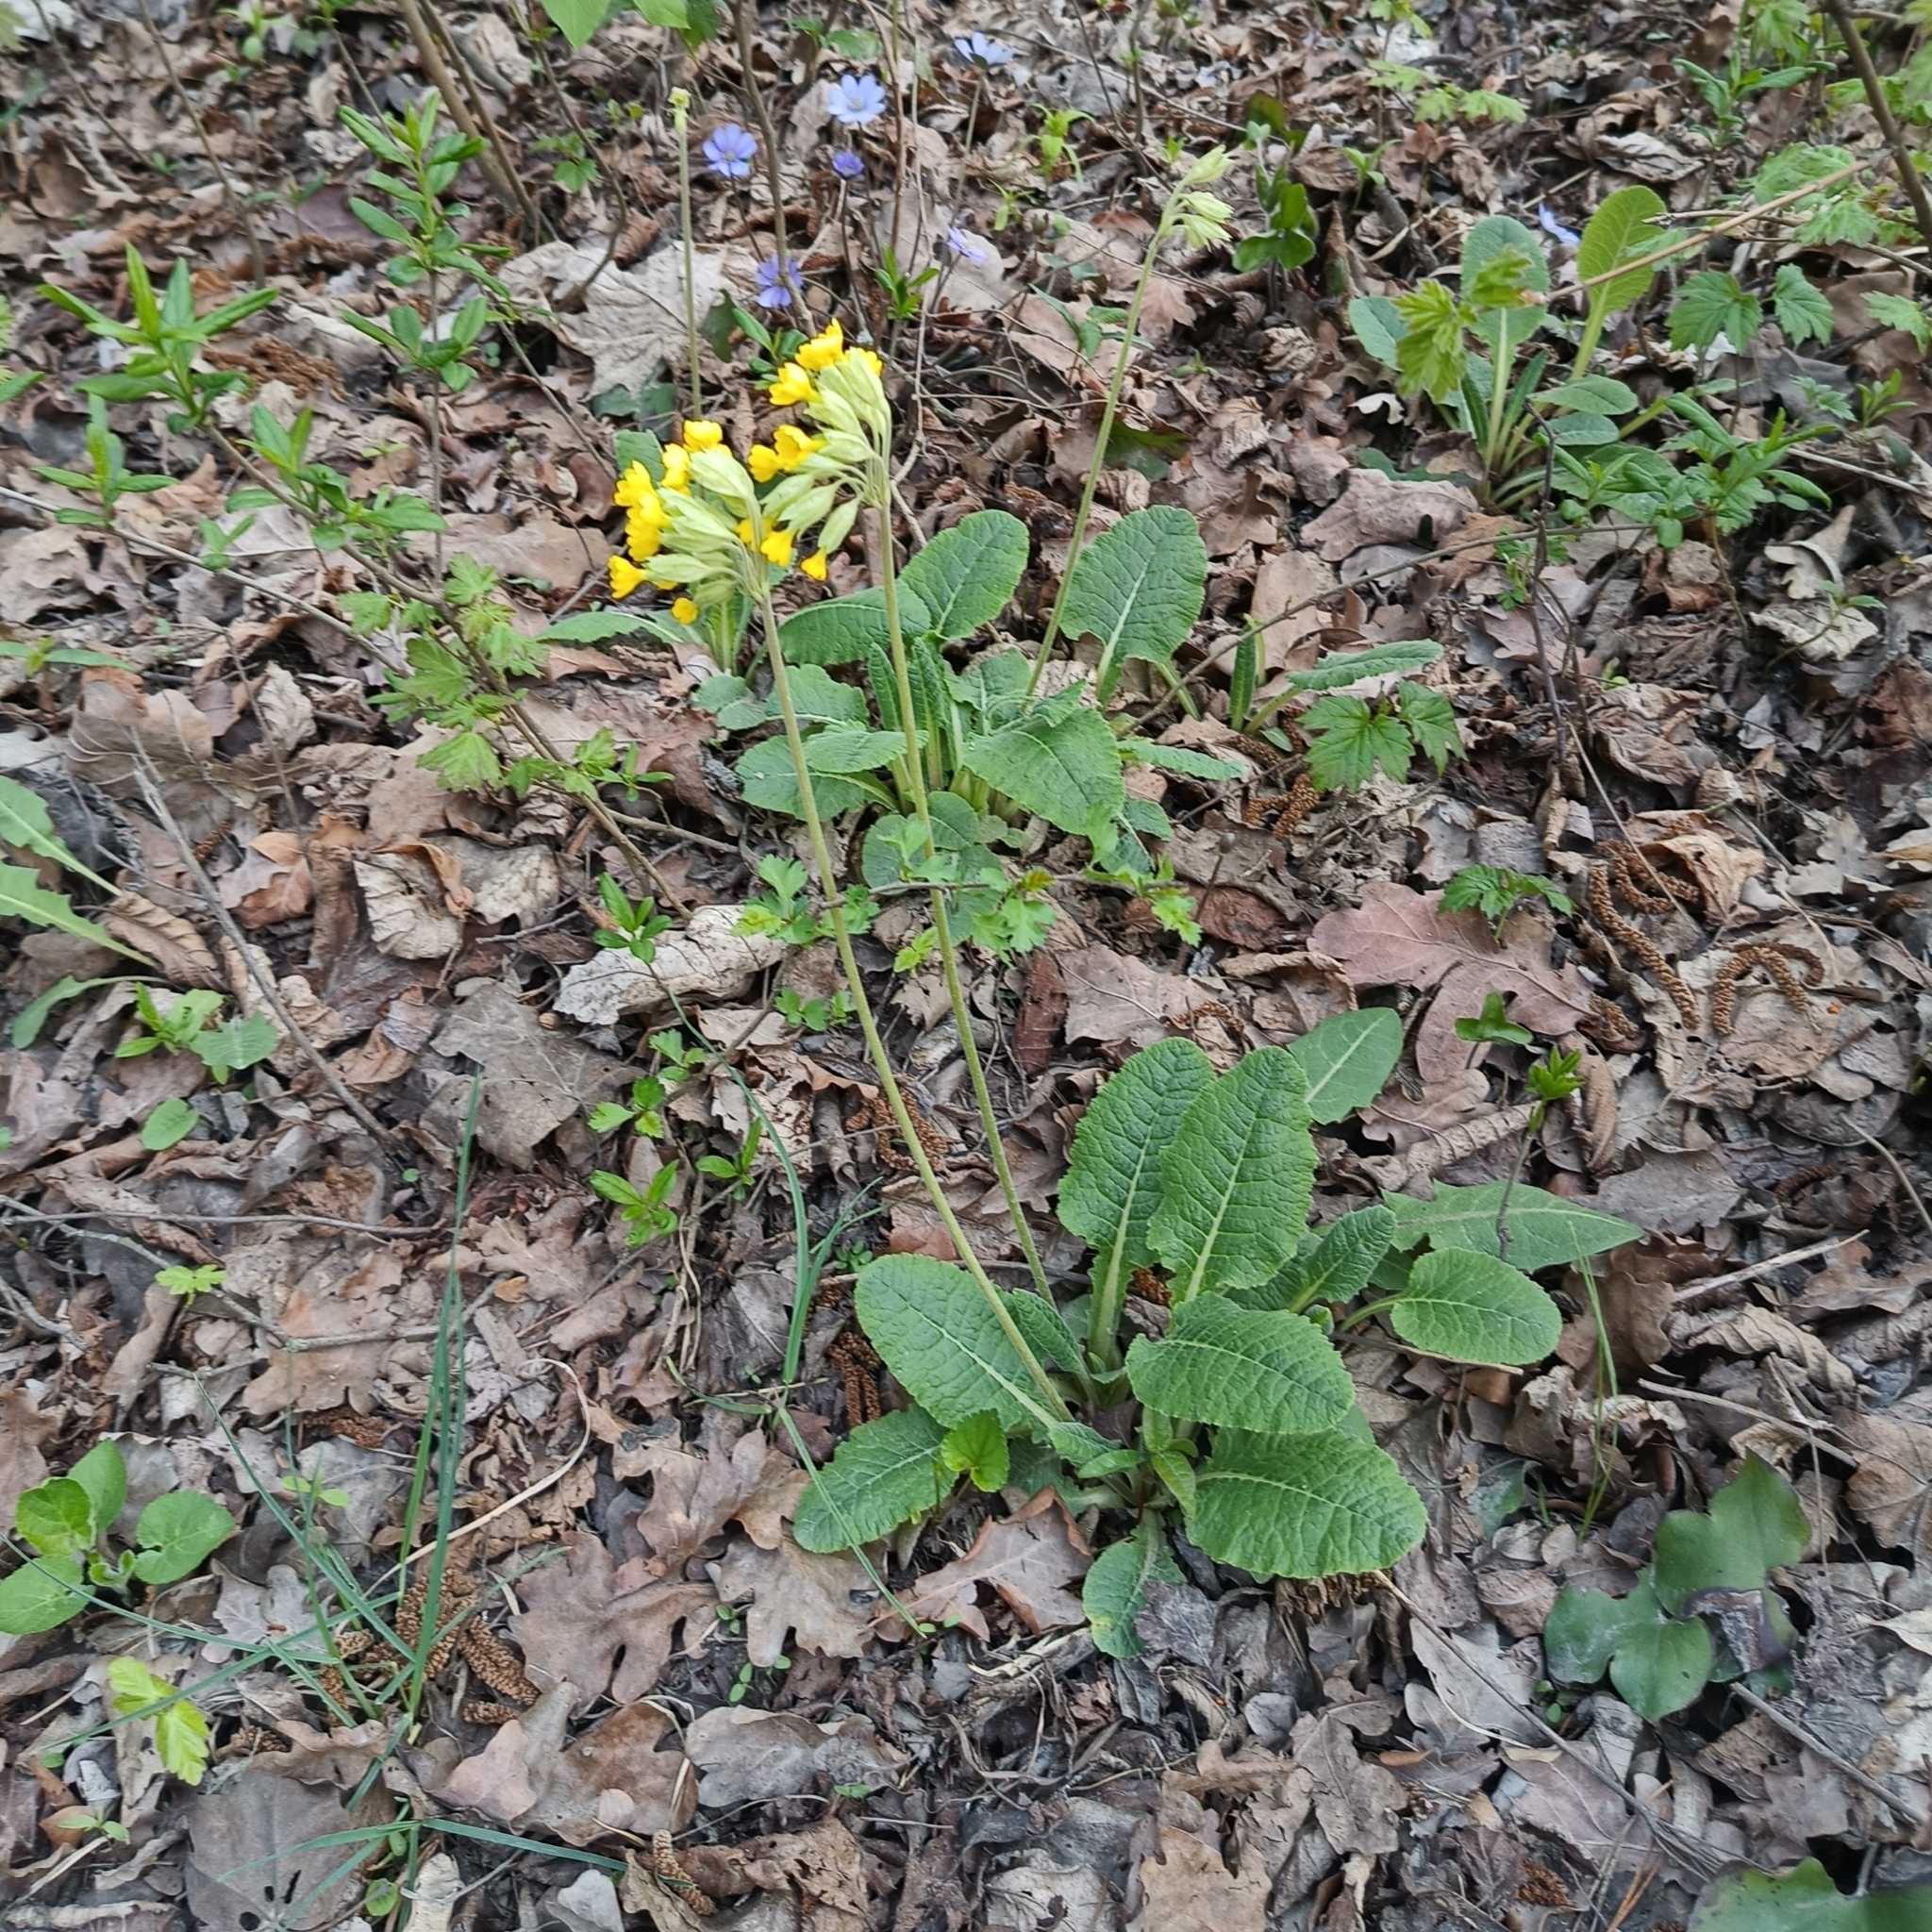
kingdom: Plantae
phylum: Tracheophyta
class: Magnoliopsida
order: Ericales
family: Primulaceae
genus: Primula
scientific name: Primula veris
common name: Cowslip
